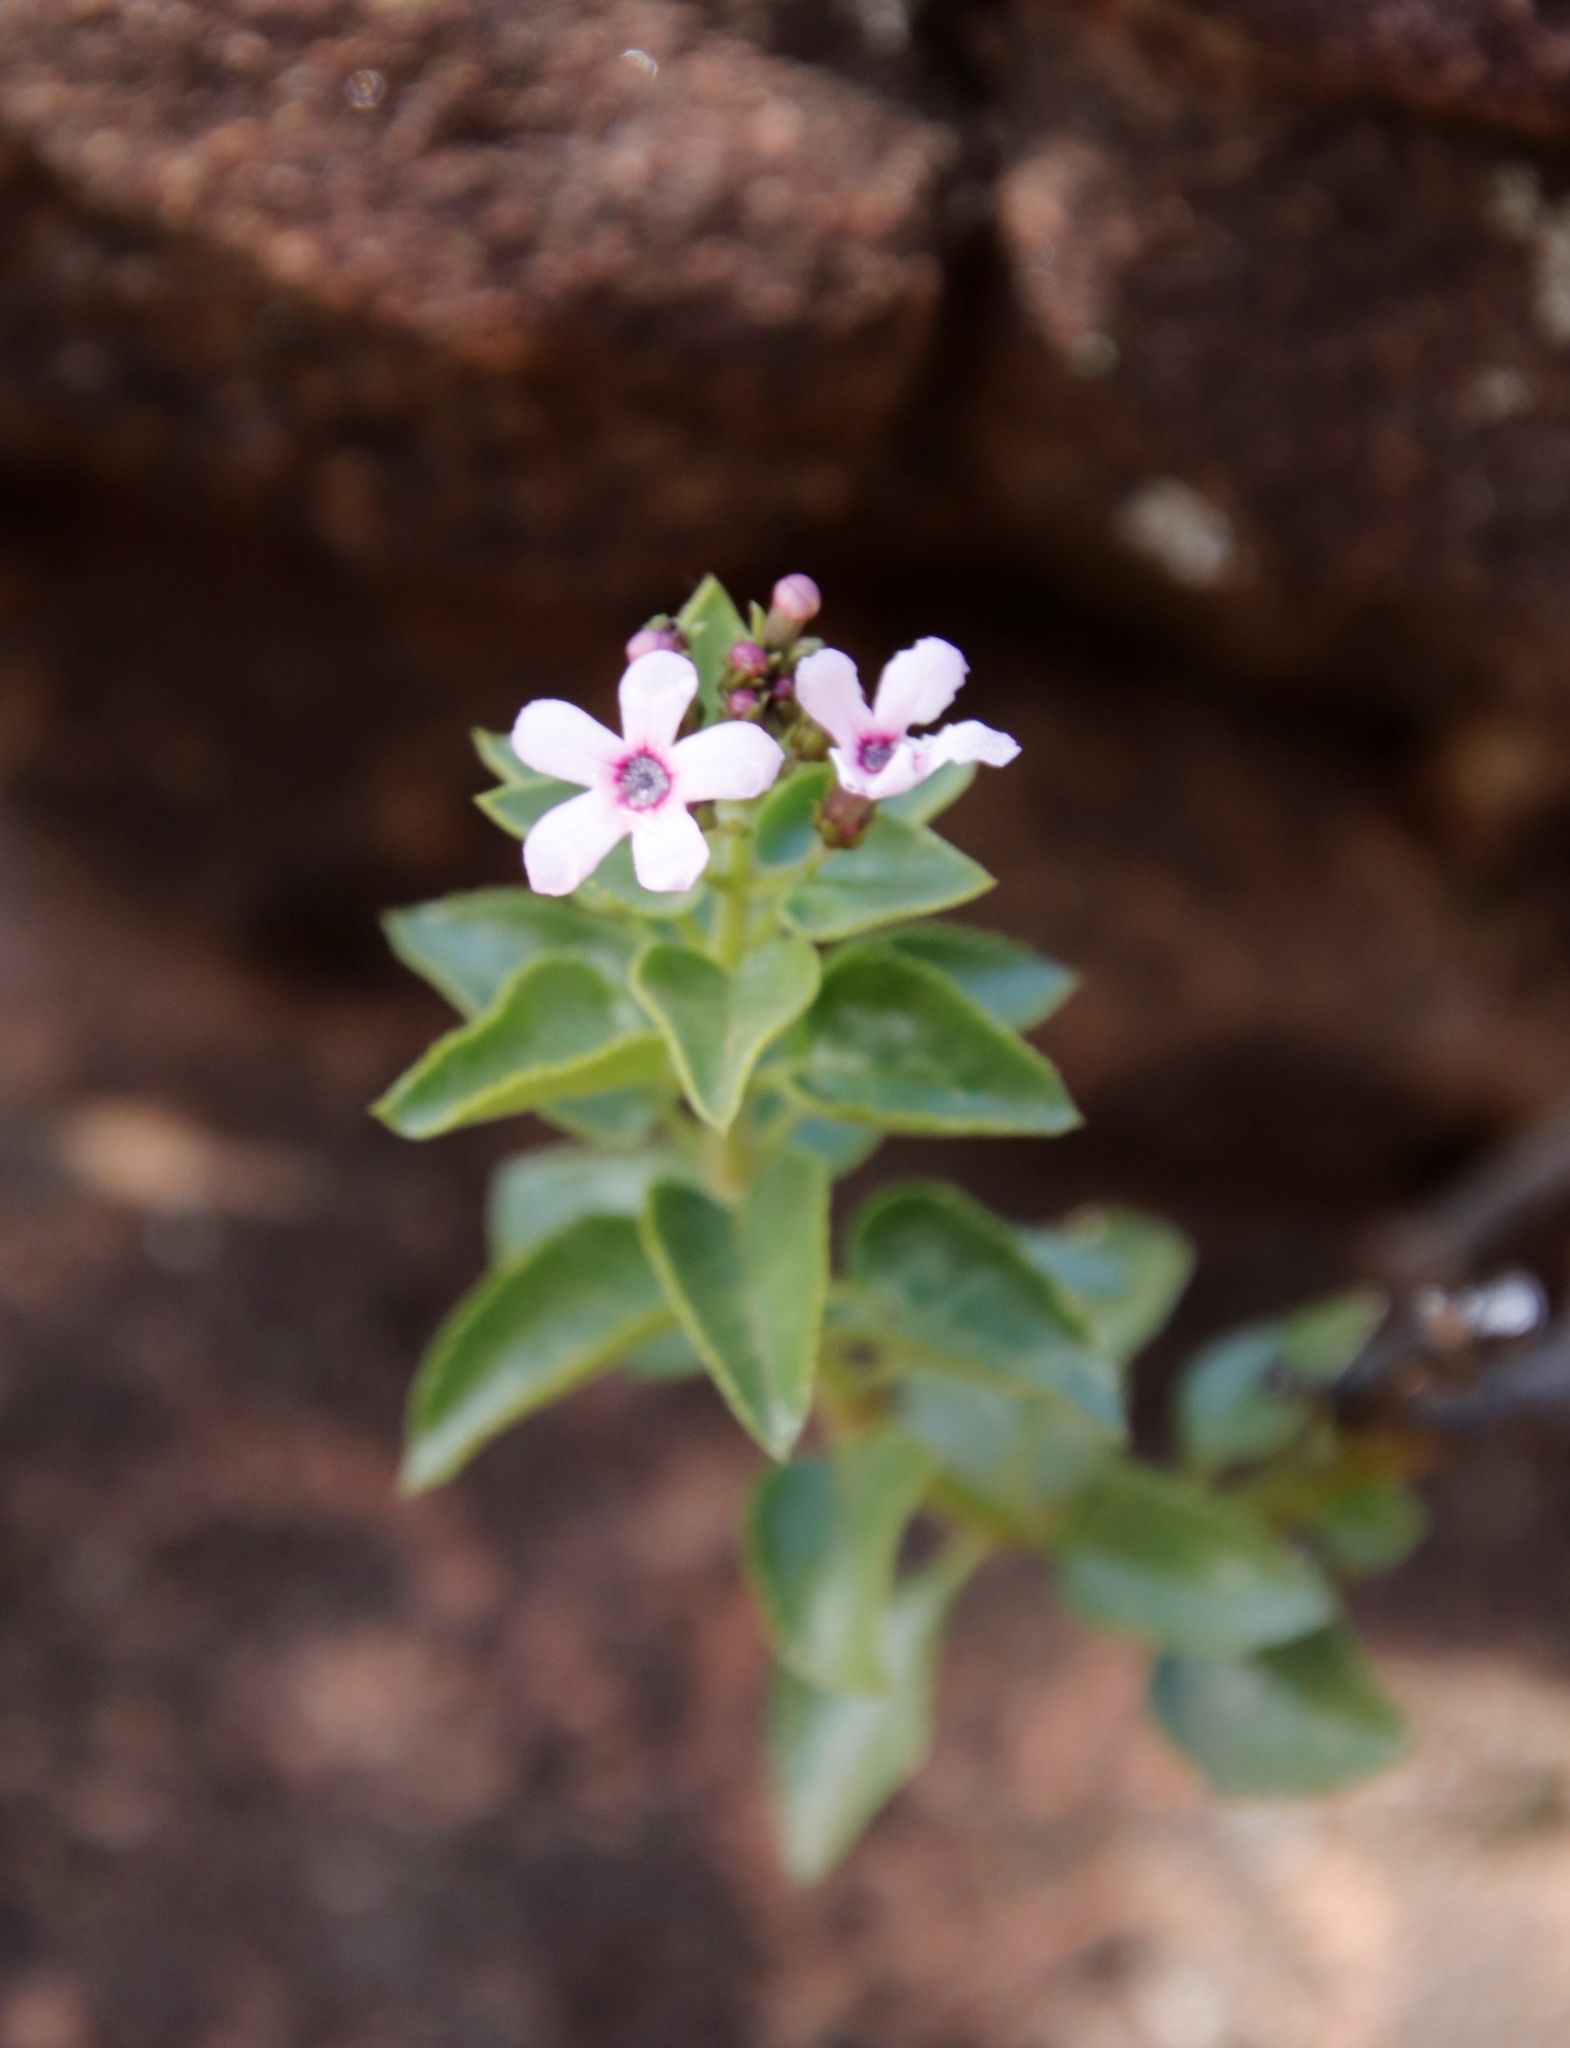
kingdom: Plantae
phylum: Tracheophyta
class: Magnoliopsida
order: Lamiales
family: Scrophulariaceae
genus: Teedia
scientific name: Teedia pubescens
